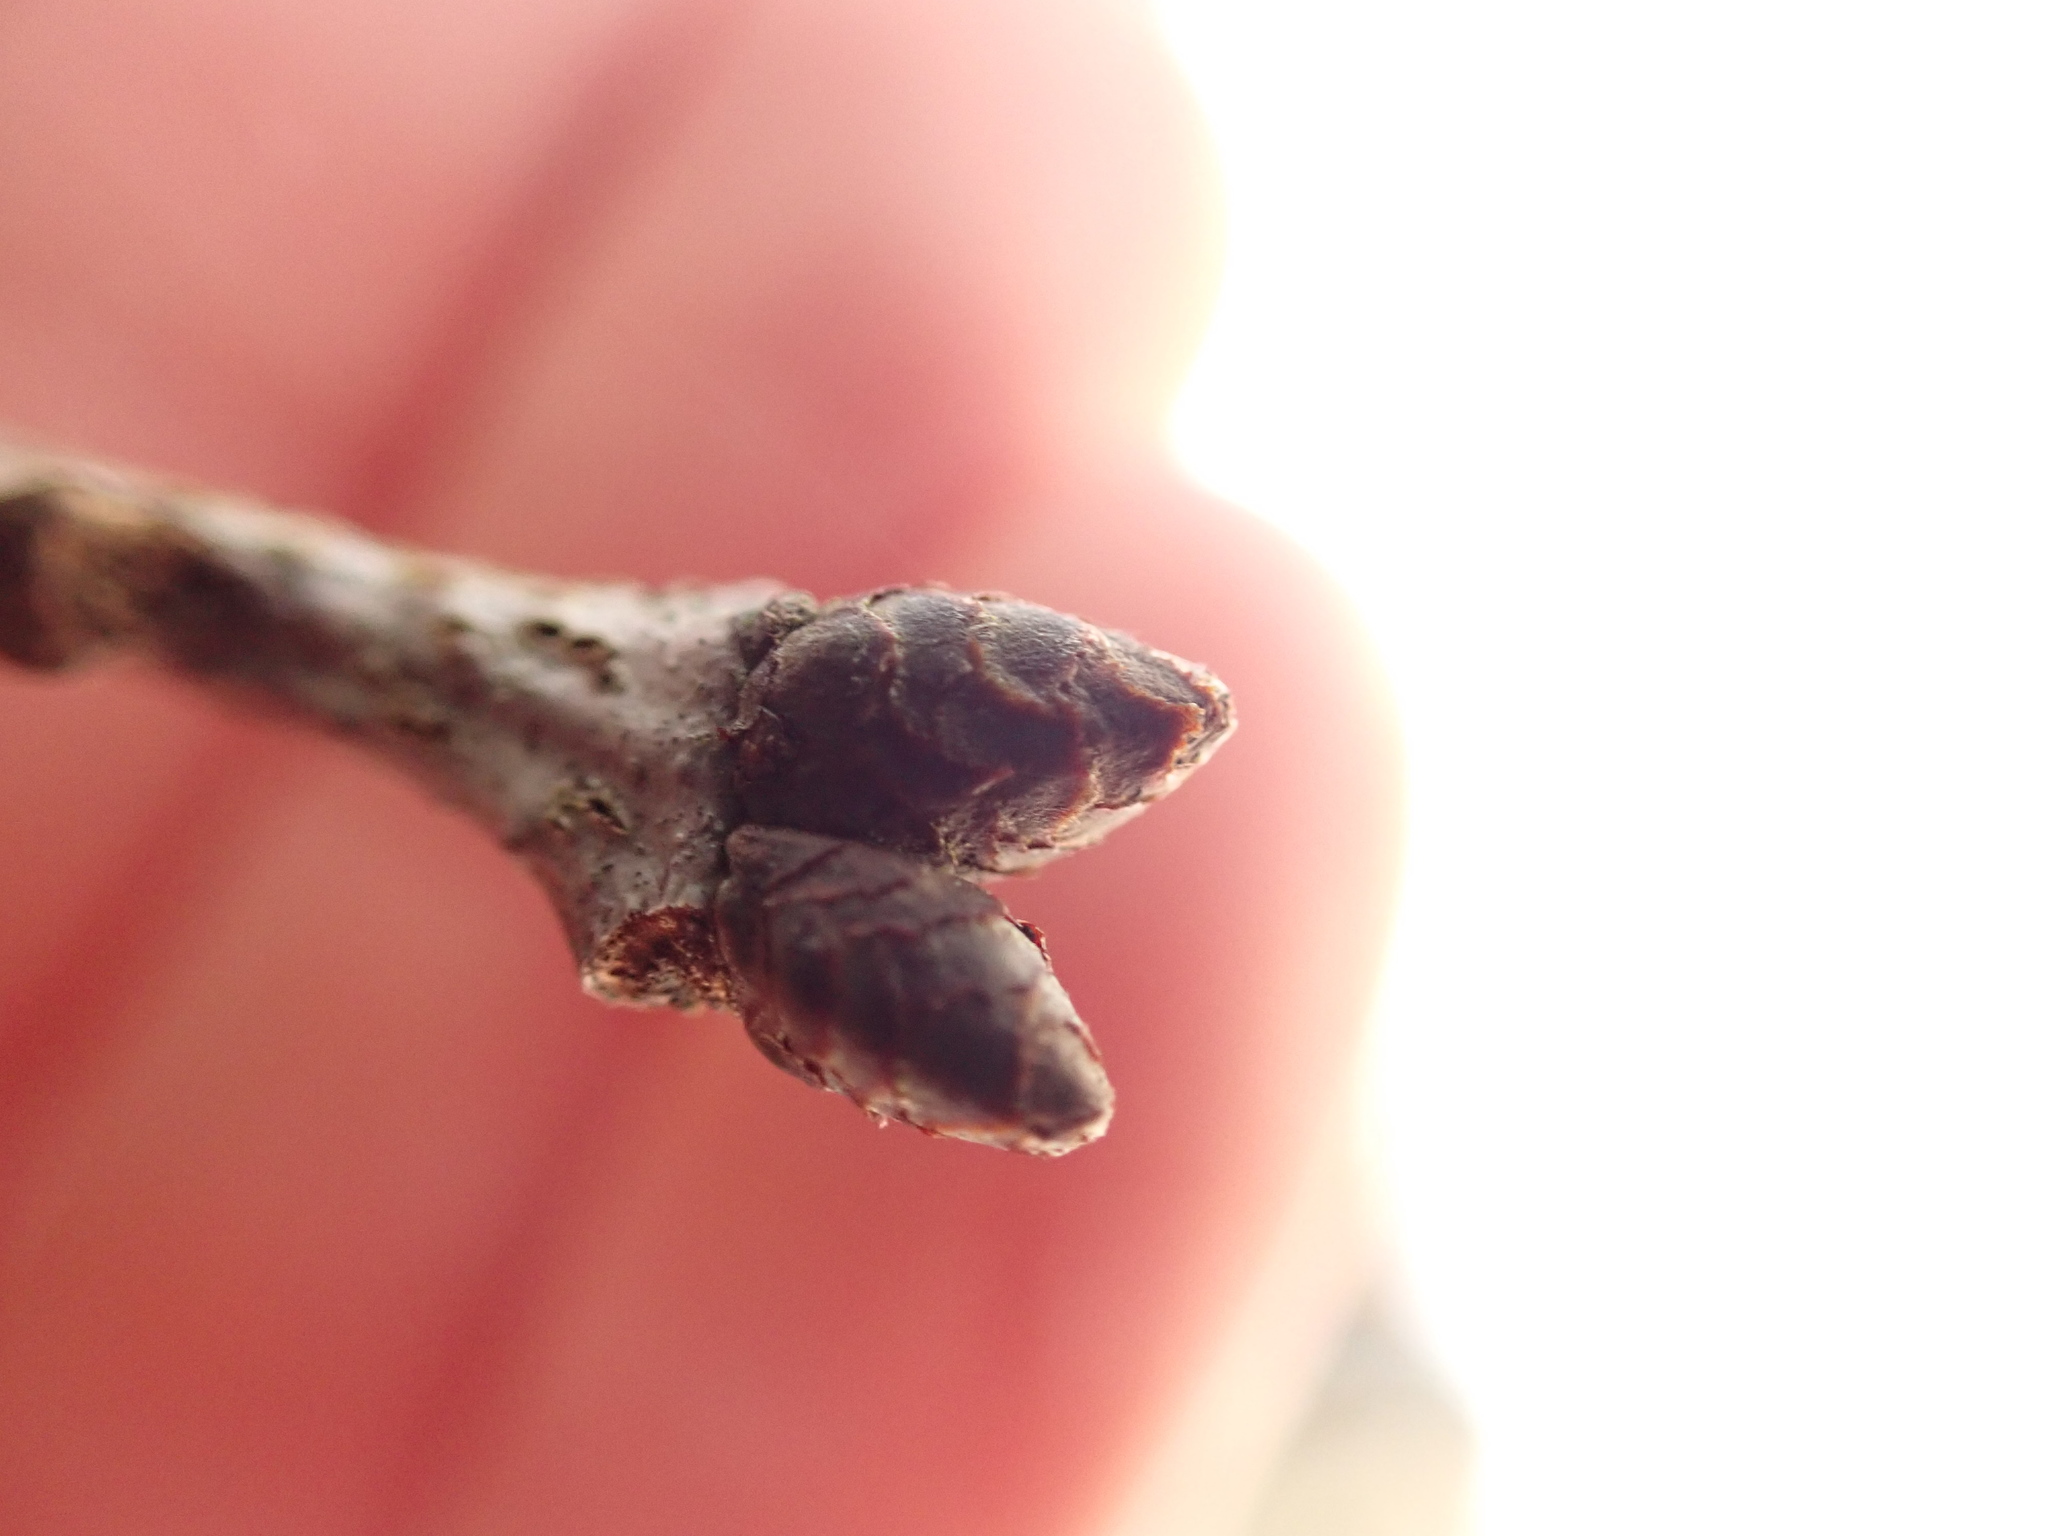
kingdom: Plantae
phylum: Tracheophyta
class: Magnoliopsida
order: Fagales
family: Fagaceae
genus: Quercus
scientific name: Quercus rubra
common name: Red oak
